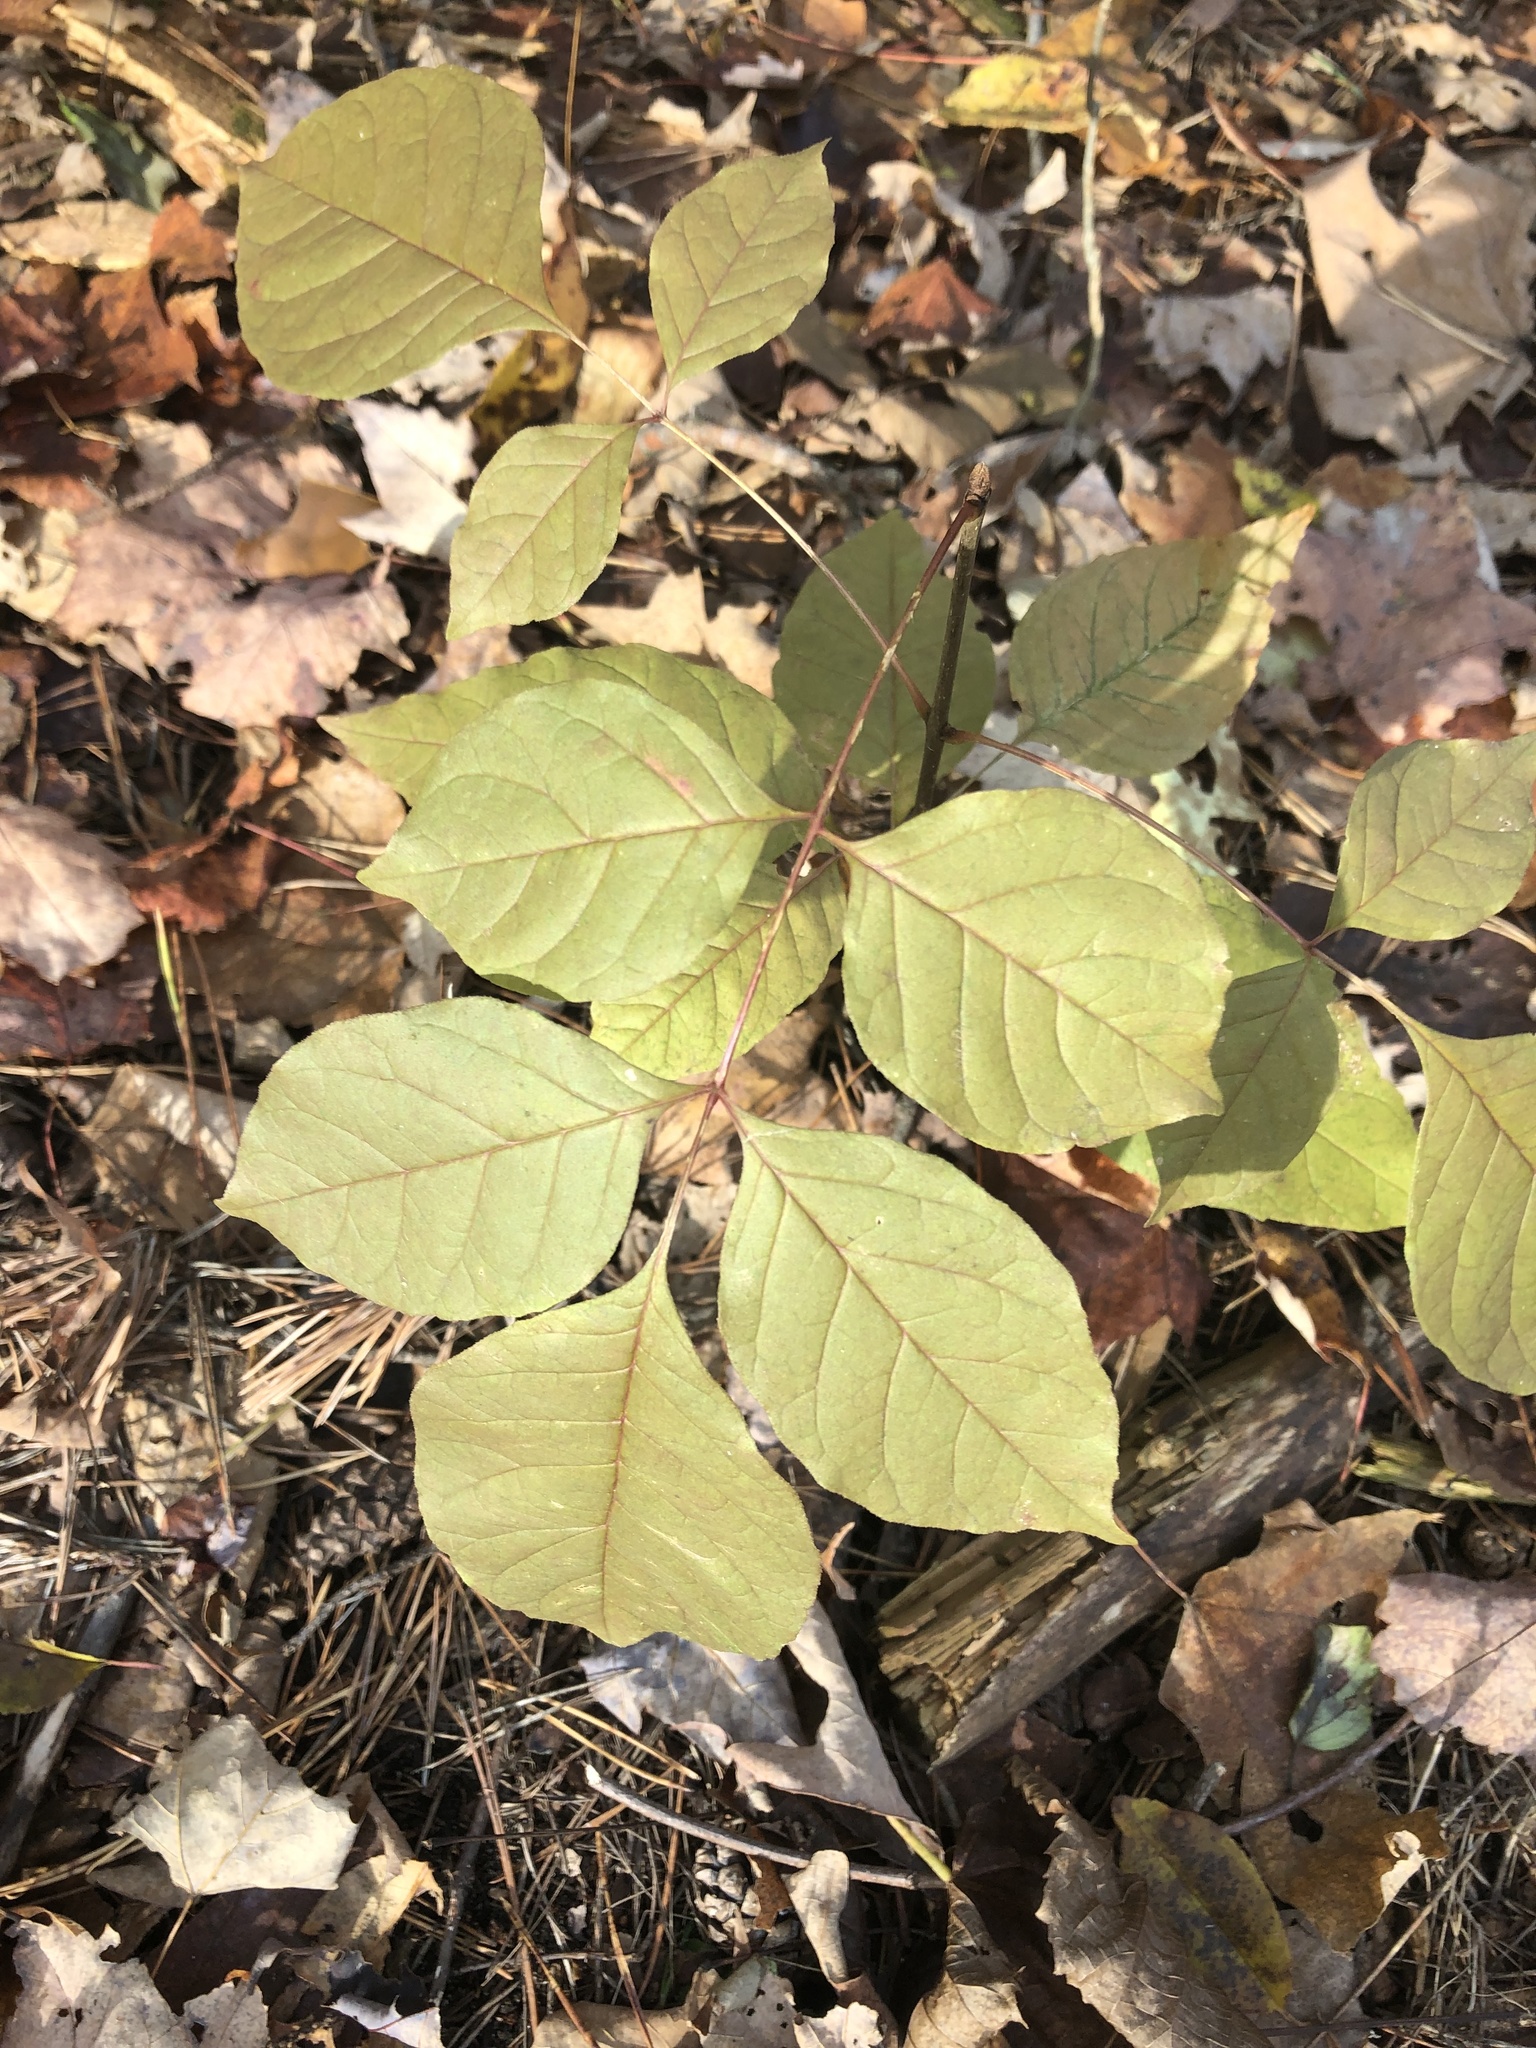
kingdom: Plantae
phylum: Tracheophyta
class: Magnoliopsida
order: Lamiales
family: Oleaceae
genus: Fraxinus
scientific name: Fraxinus americana
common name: White ash
